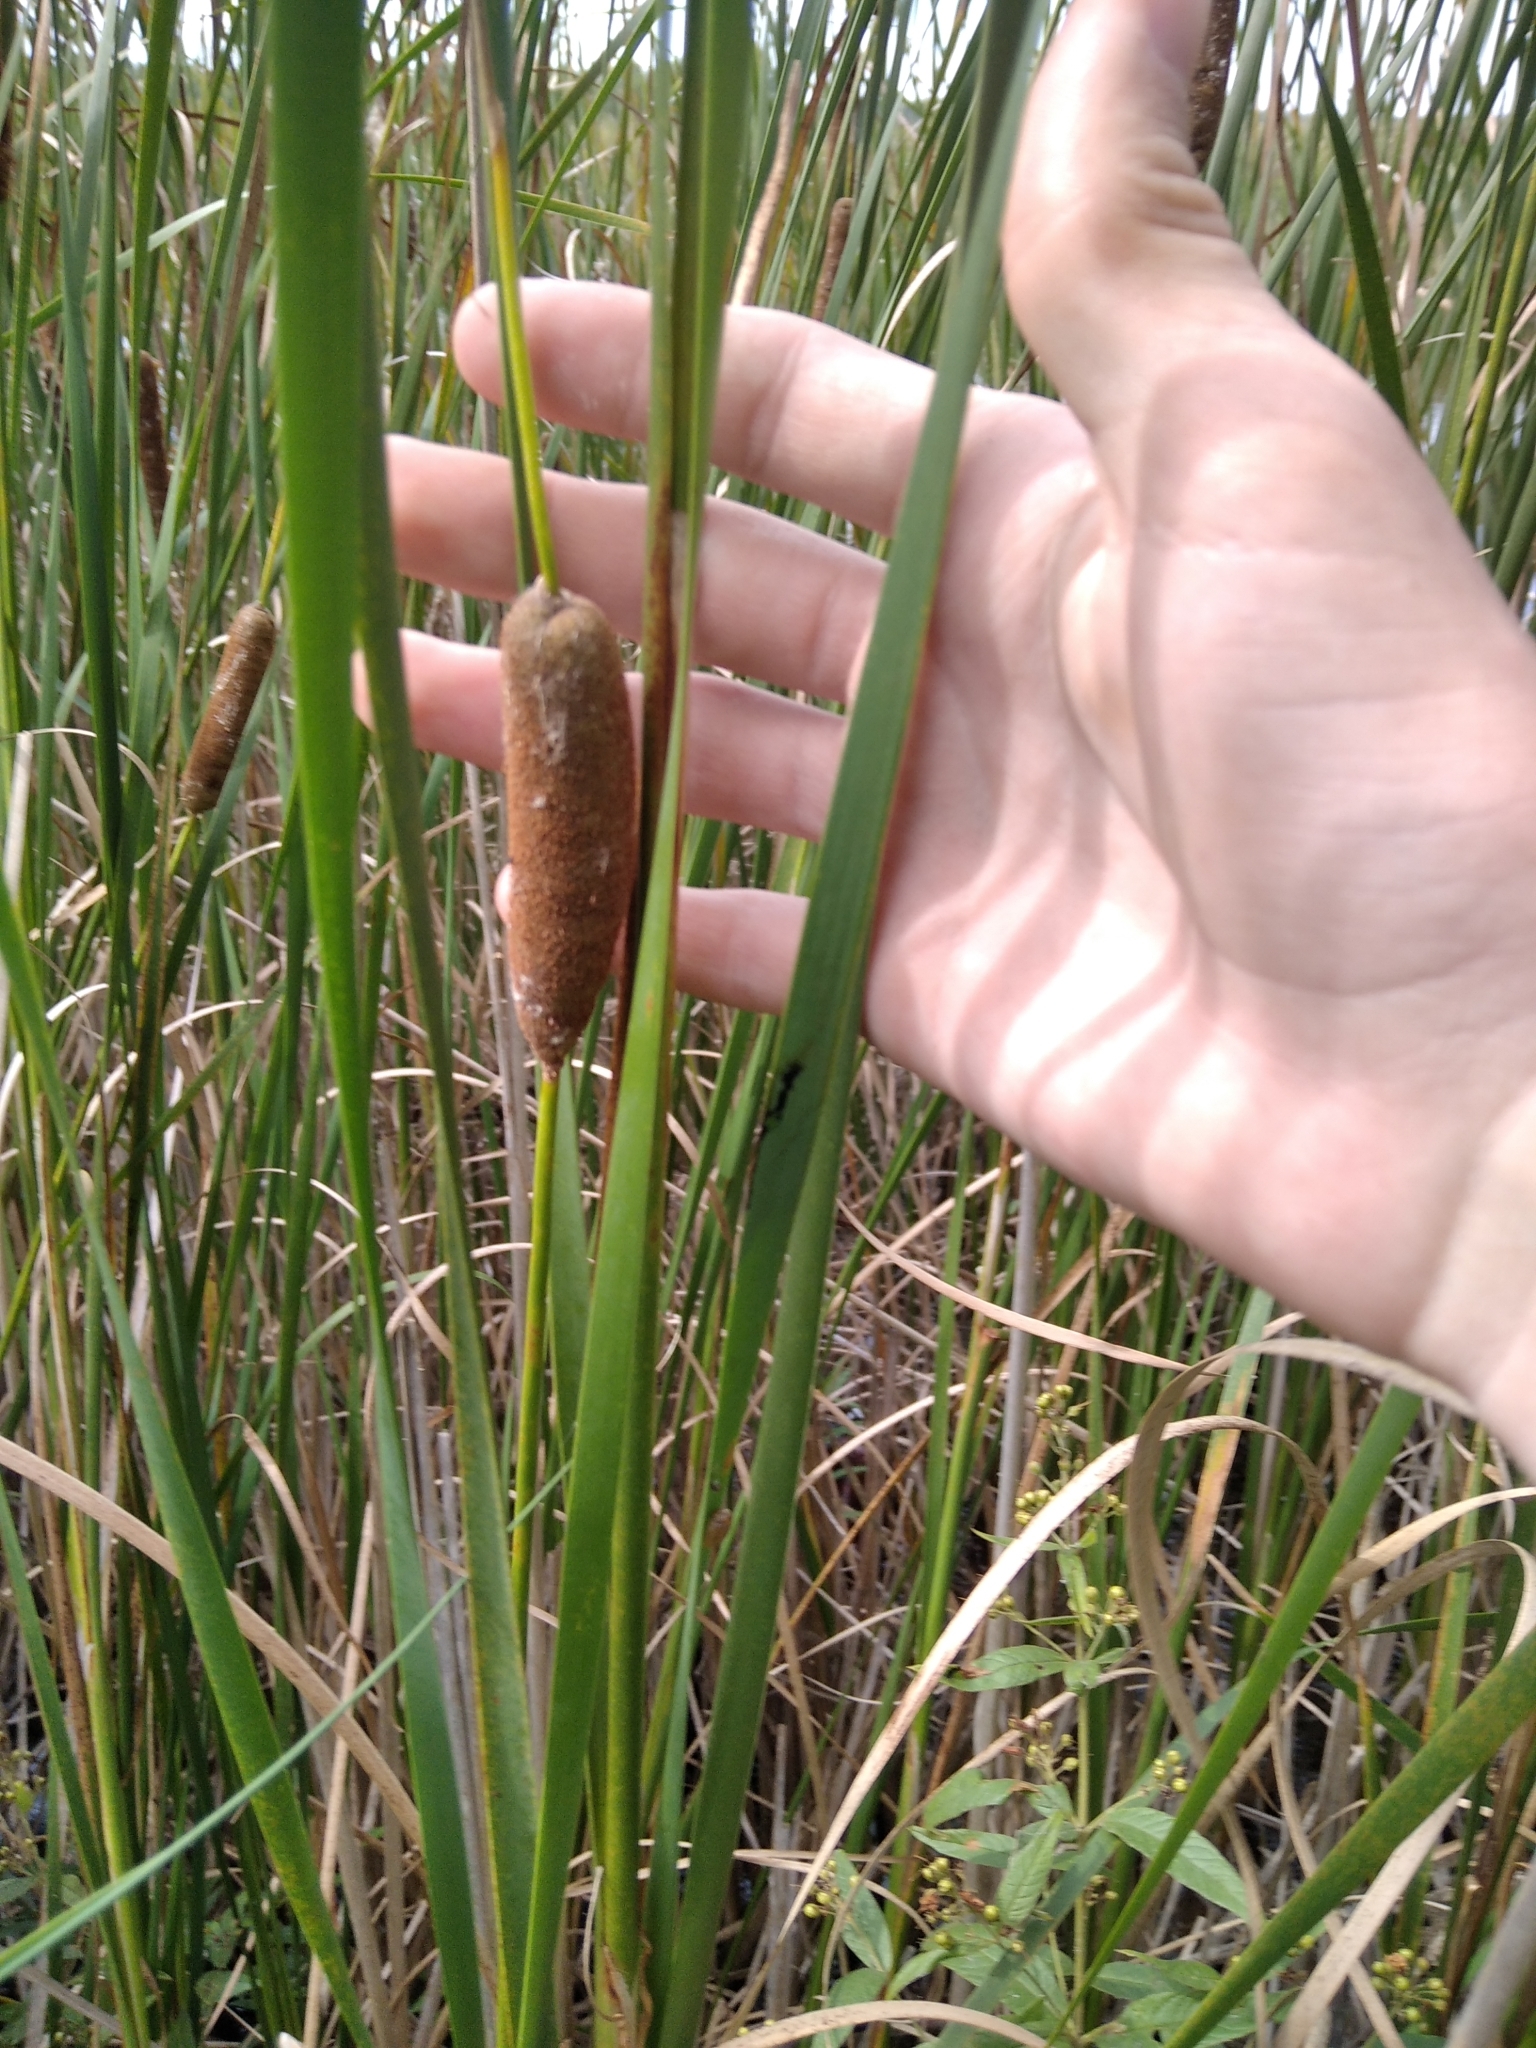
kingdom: Plantae
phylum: Tracheophyta
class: Liliopsida
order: Poales
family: Typhaceae
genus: Typha
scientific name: Typha angustifolia
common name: Lesser bulrush
